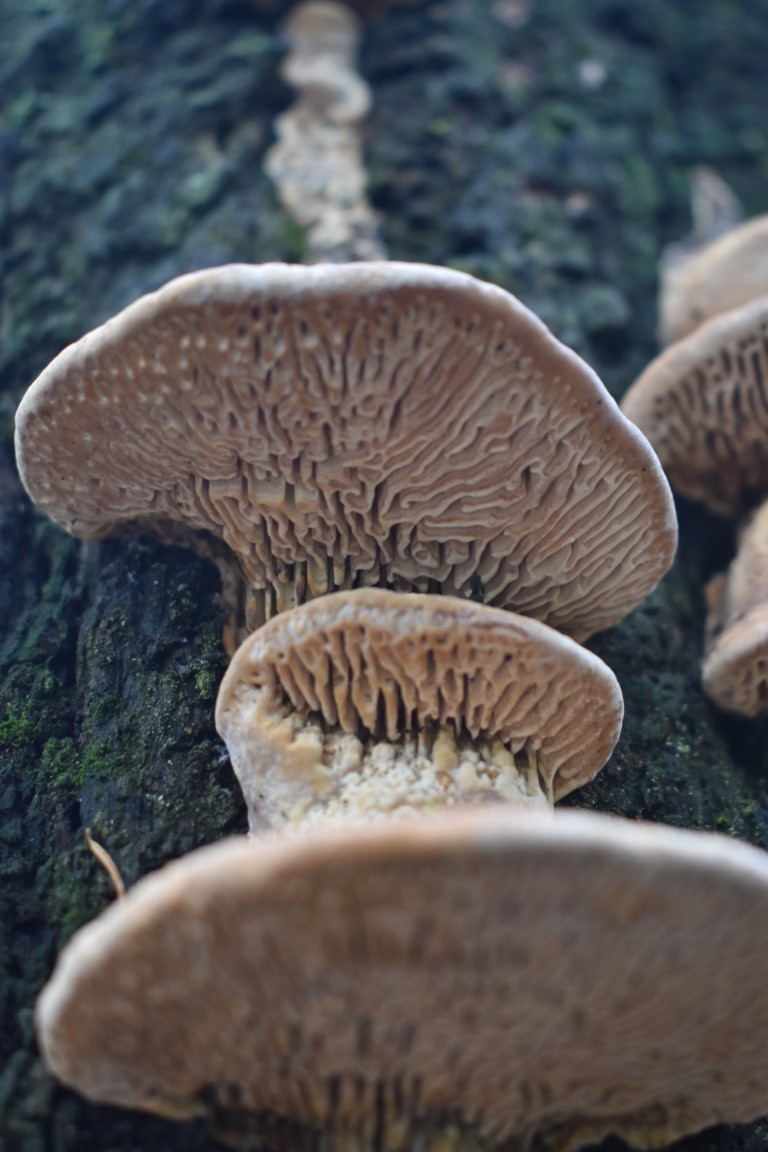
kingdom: Fungi
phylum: Basidiomycota
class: Agaricomycetes
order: Polyporales
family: Fomitopsidaceae
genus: Fomitopsis
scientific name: Fomitopsis
